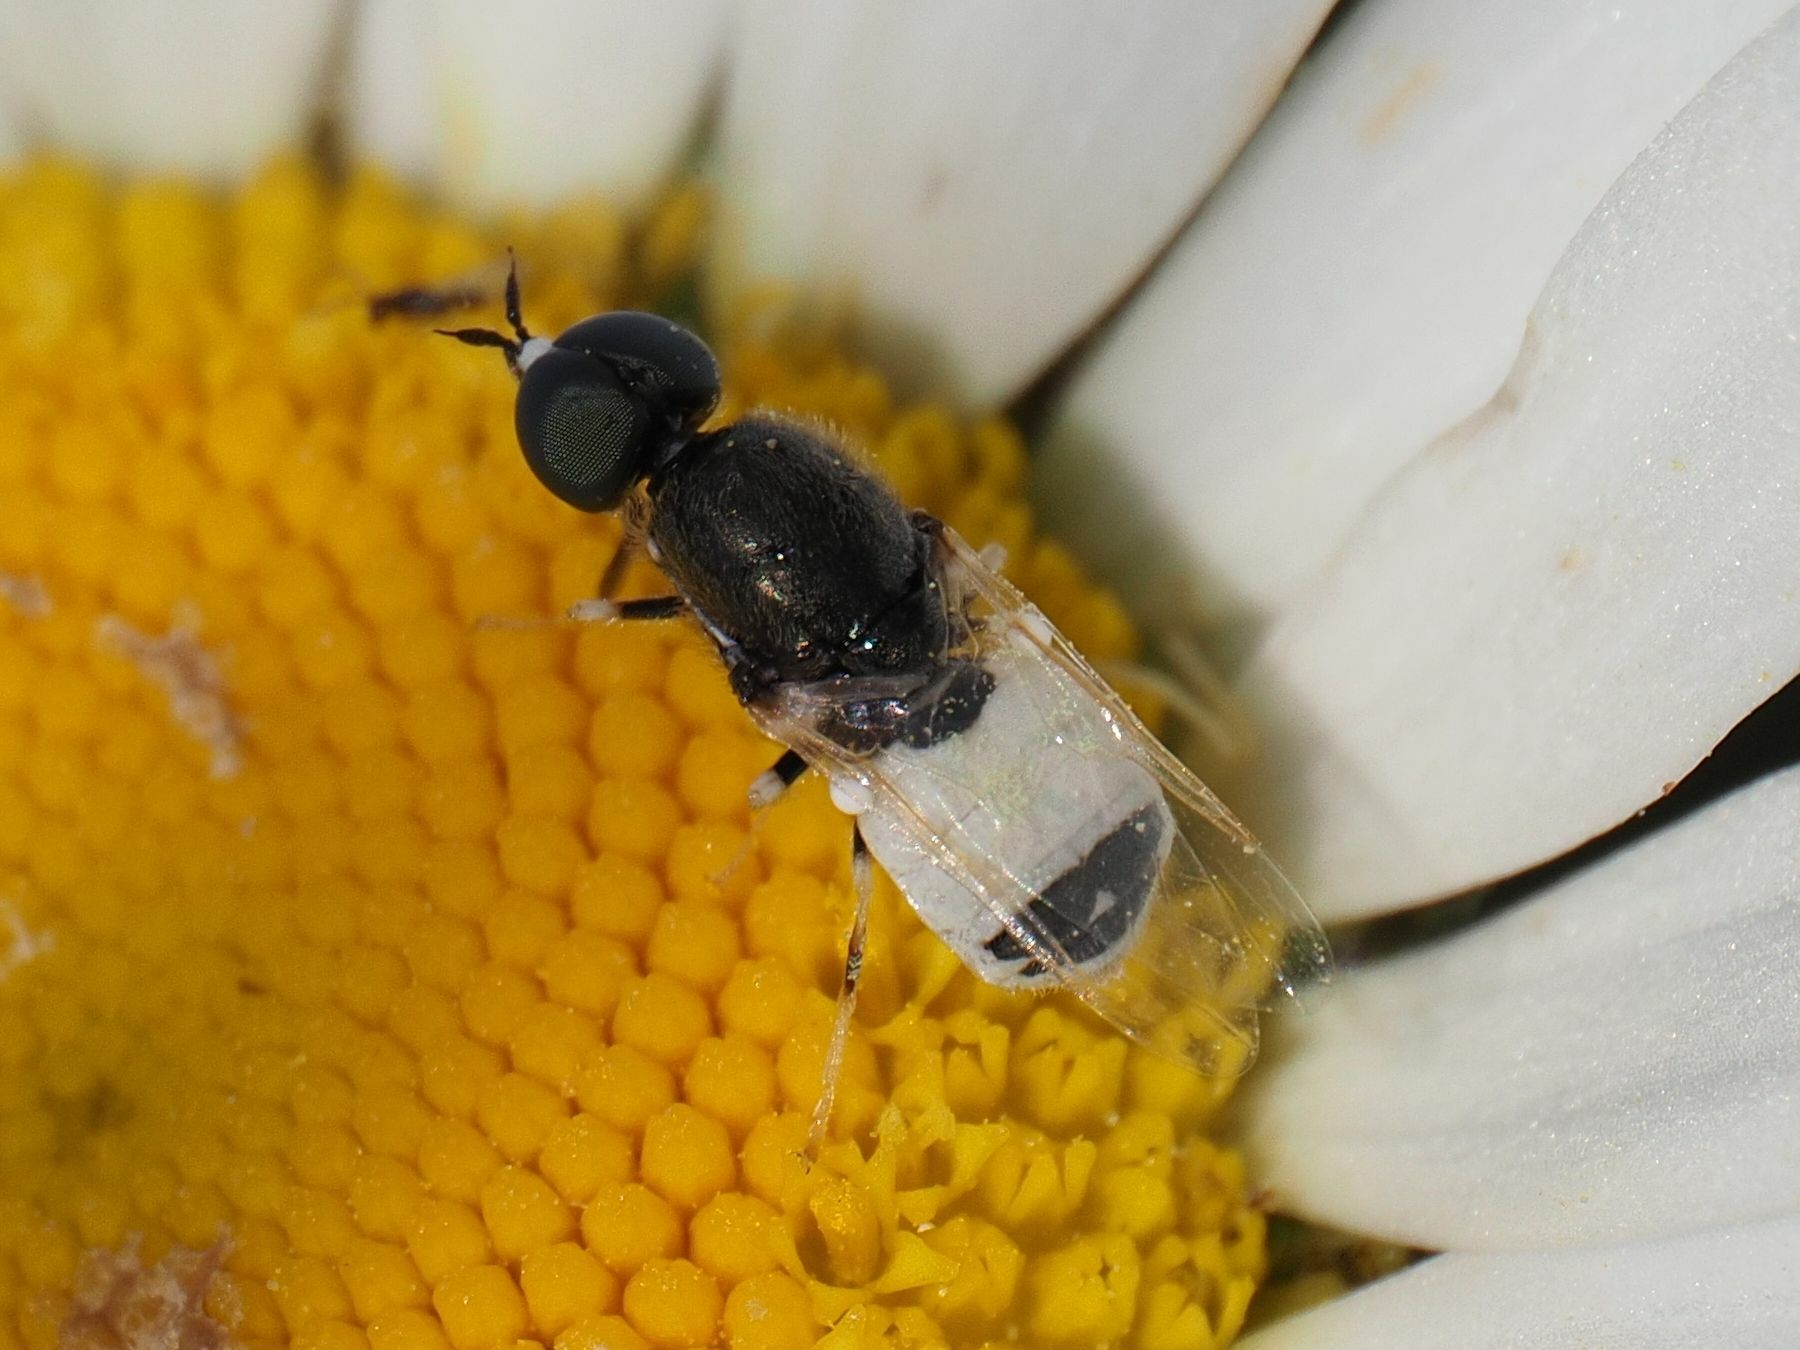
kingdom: Animalia
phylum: Arthropoda
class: Insecta
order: Diptera
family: Stratiomyidae
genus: Nemotelus
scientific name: Nemotelus pantherina
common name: Fen snout
